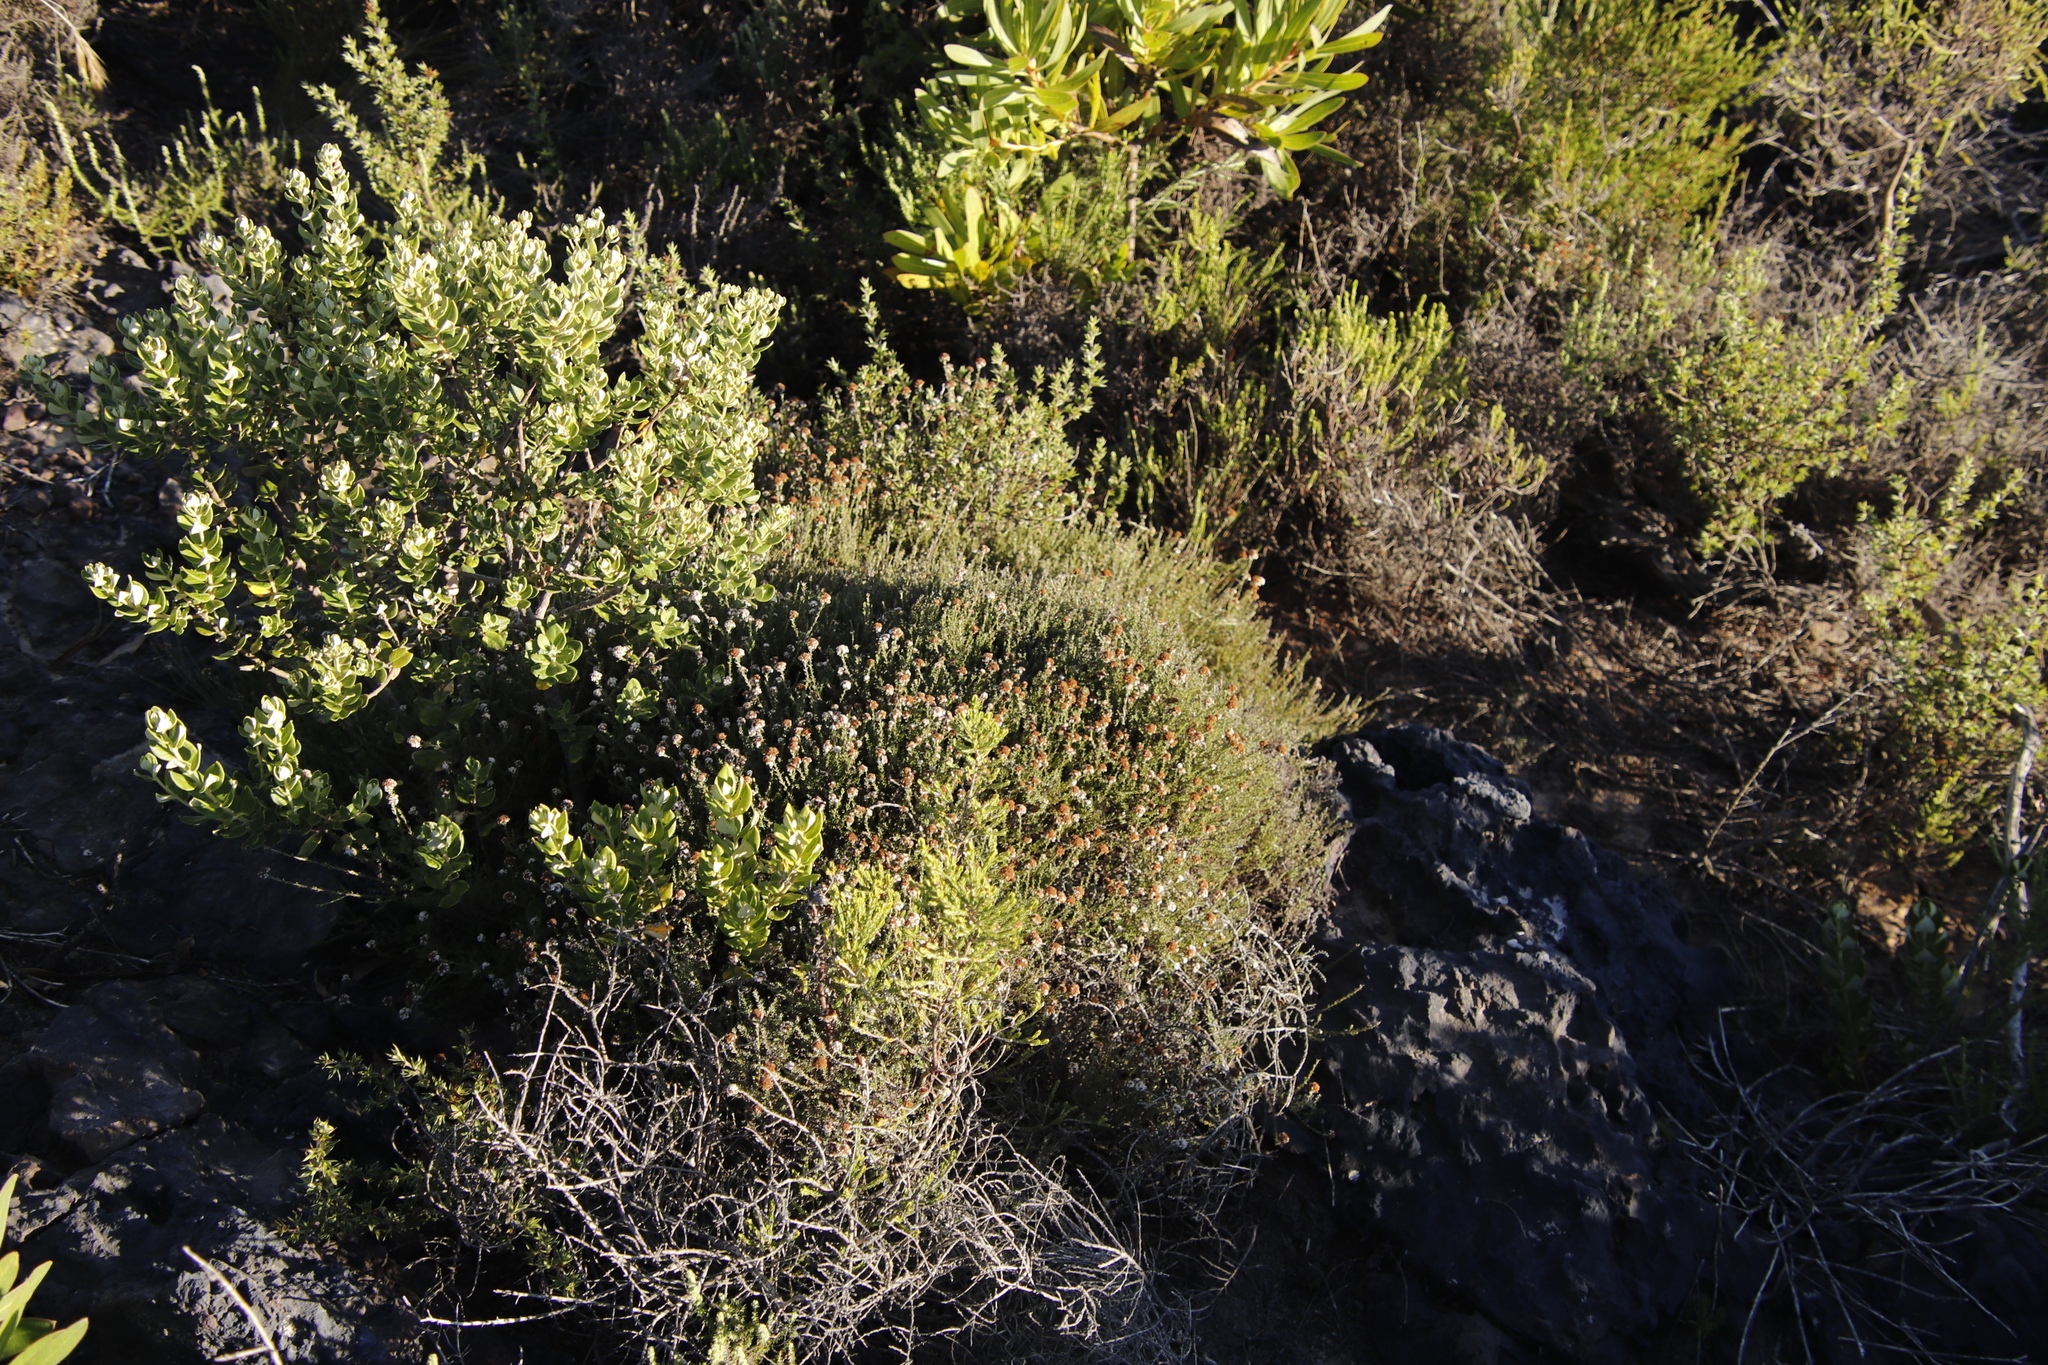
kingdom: Plantae
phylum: Tracheophyta
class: Magnoliopsida
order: Asterales
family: Asteraceae
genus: Stoebe
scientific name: Stoebe capitata
